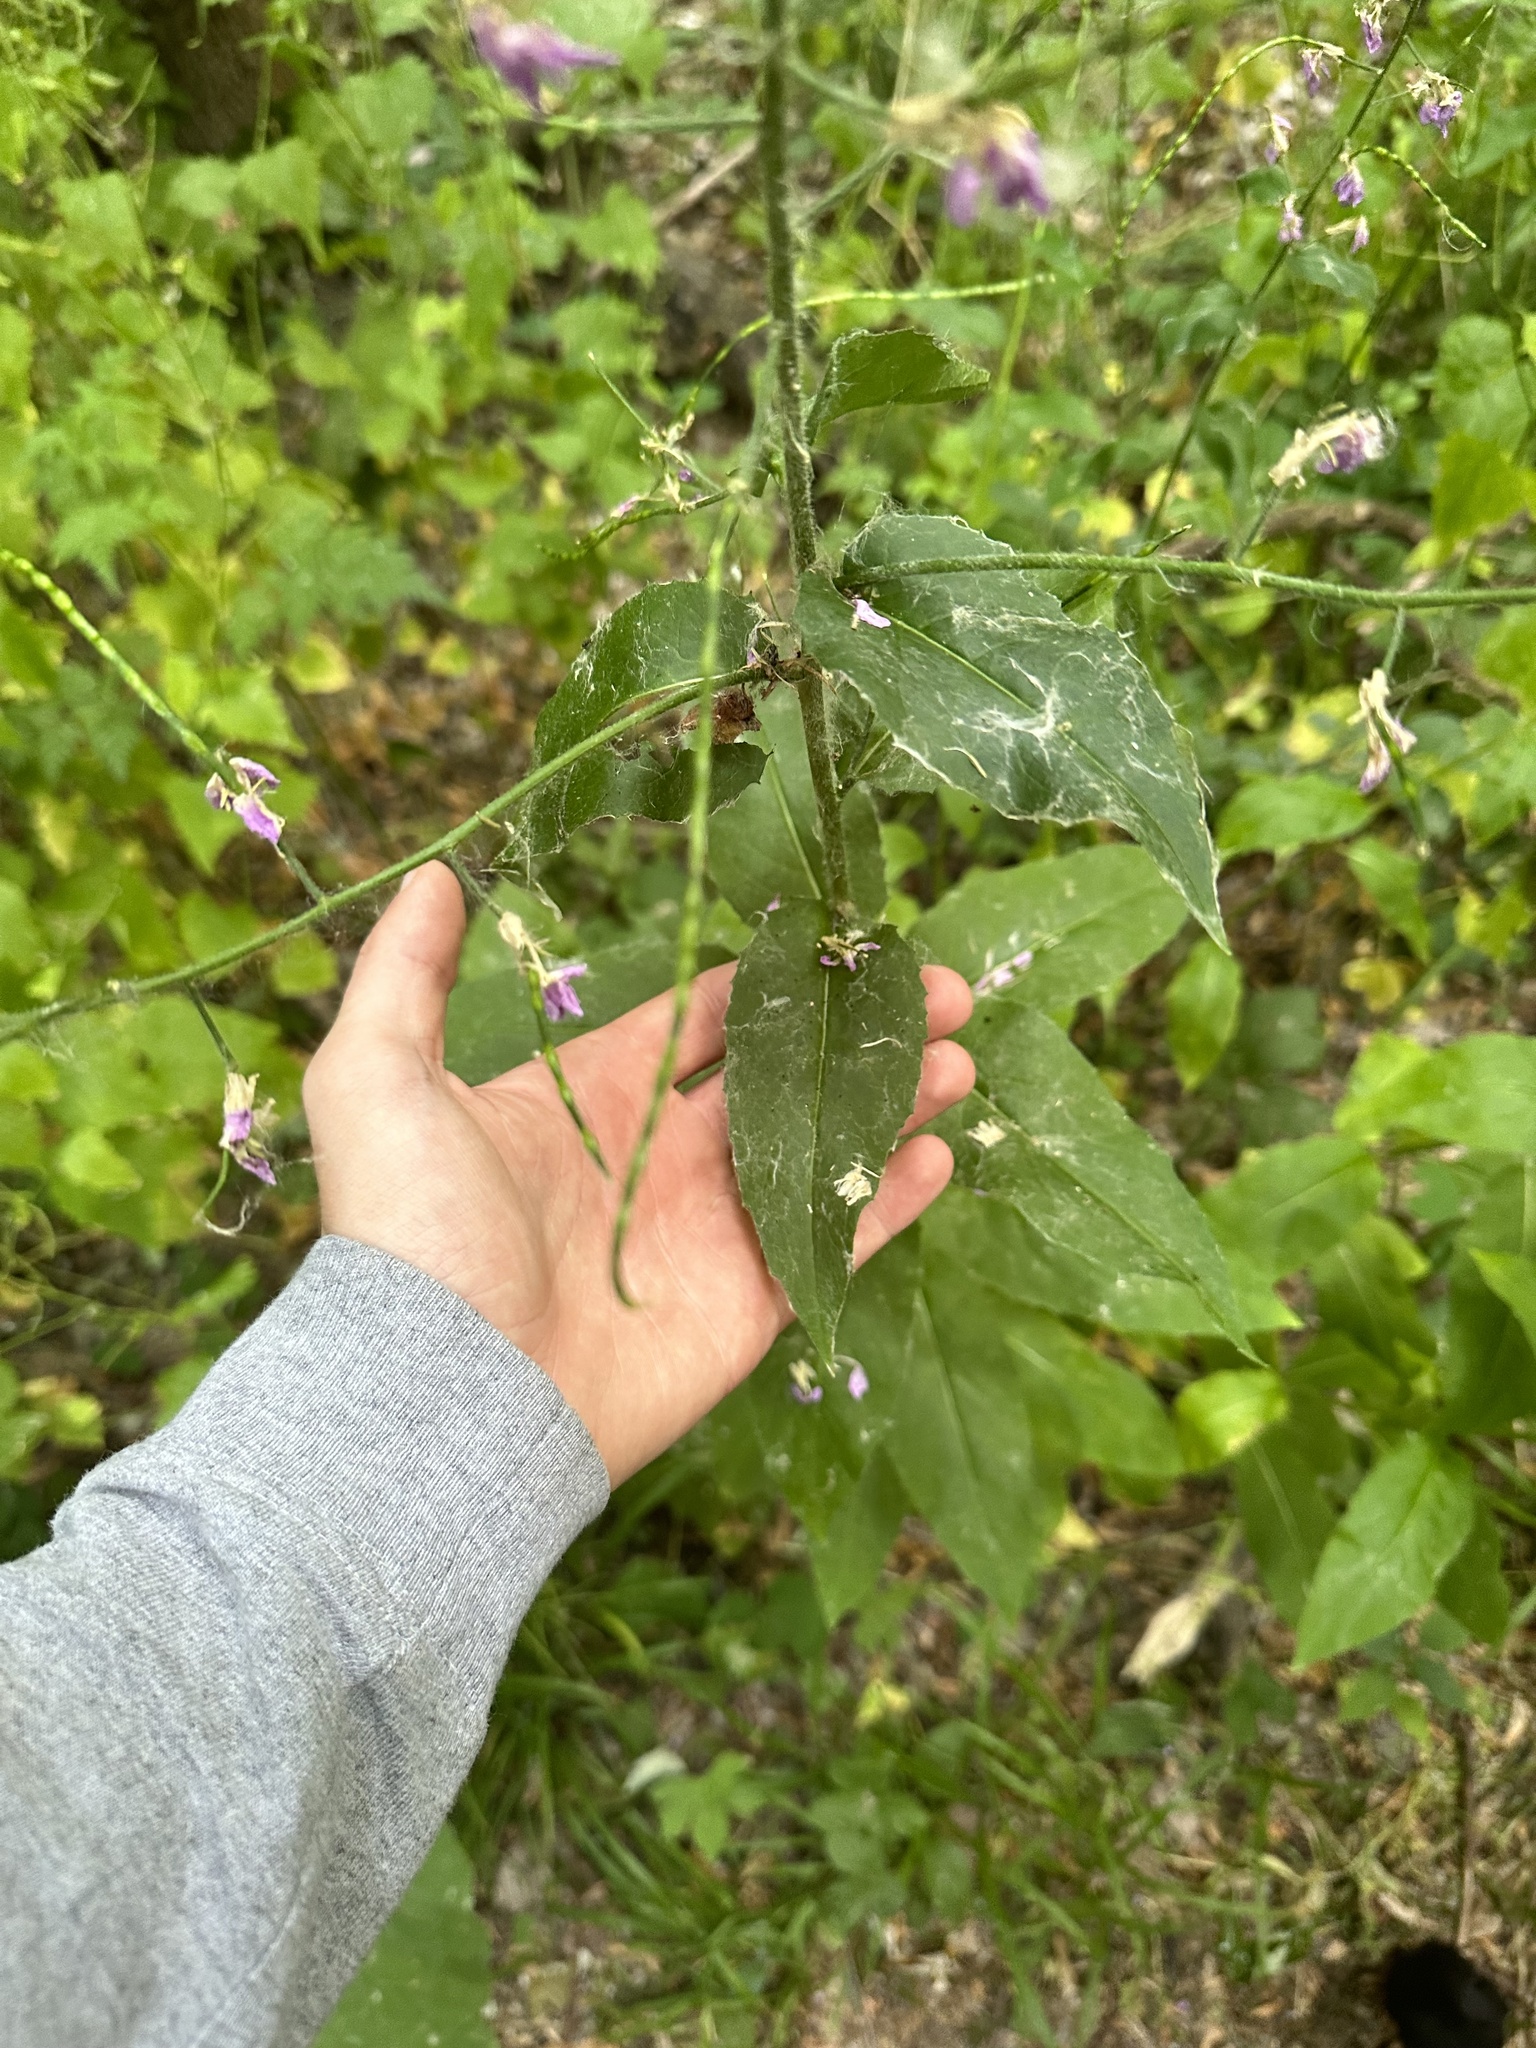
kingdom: Plantae
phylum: Tracheophyta
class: Magnoliopsida
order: Brassicales
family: Brassicaceae
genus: Hesperis
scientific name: Hesperis matronalis
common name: Dame's-violet
